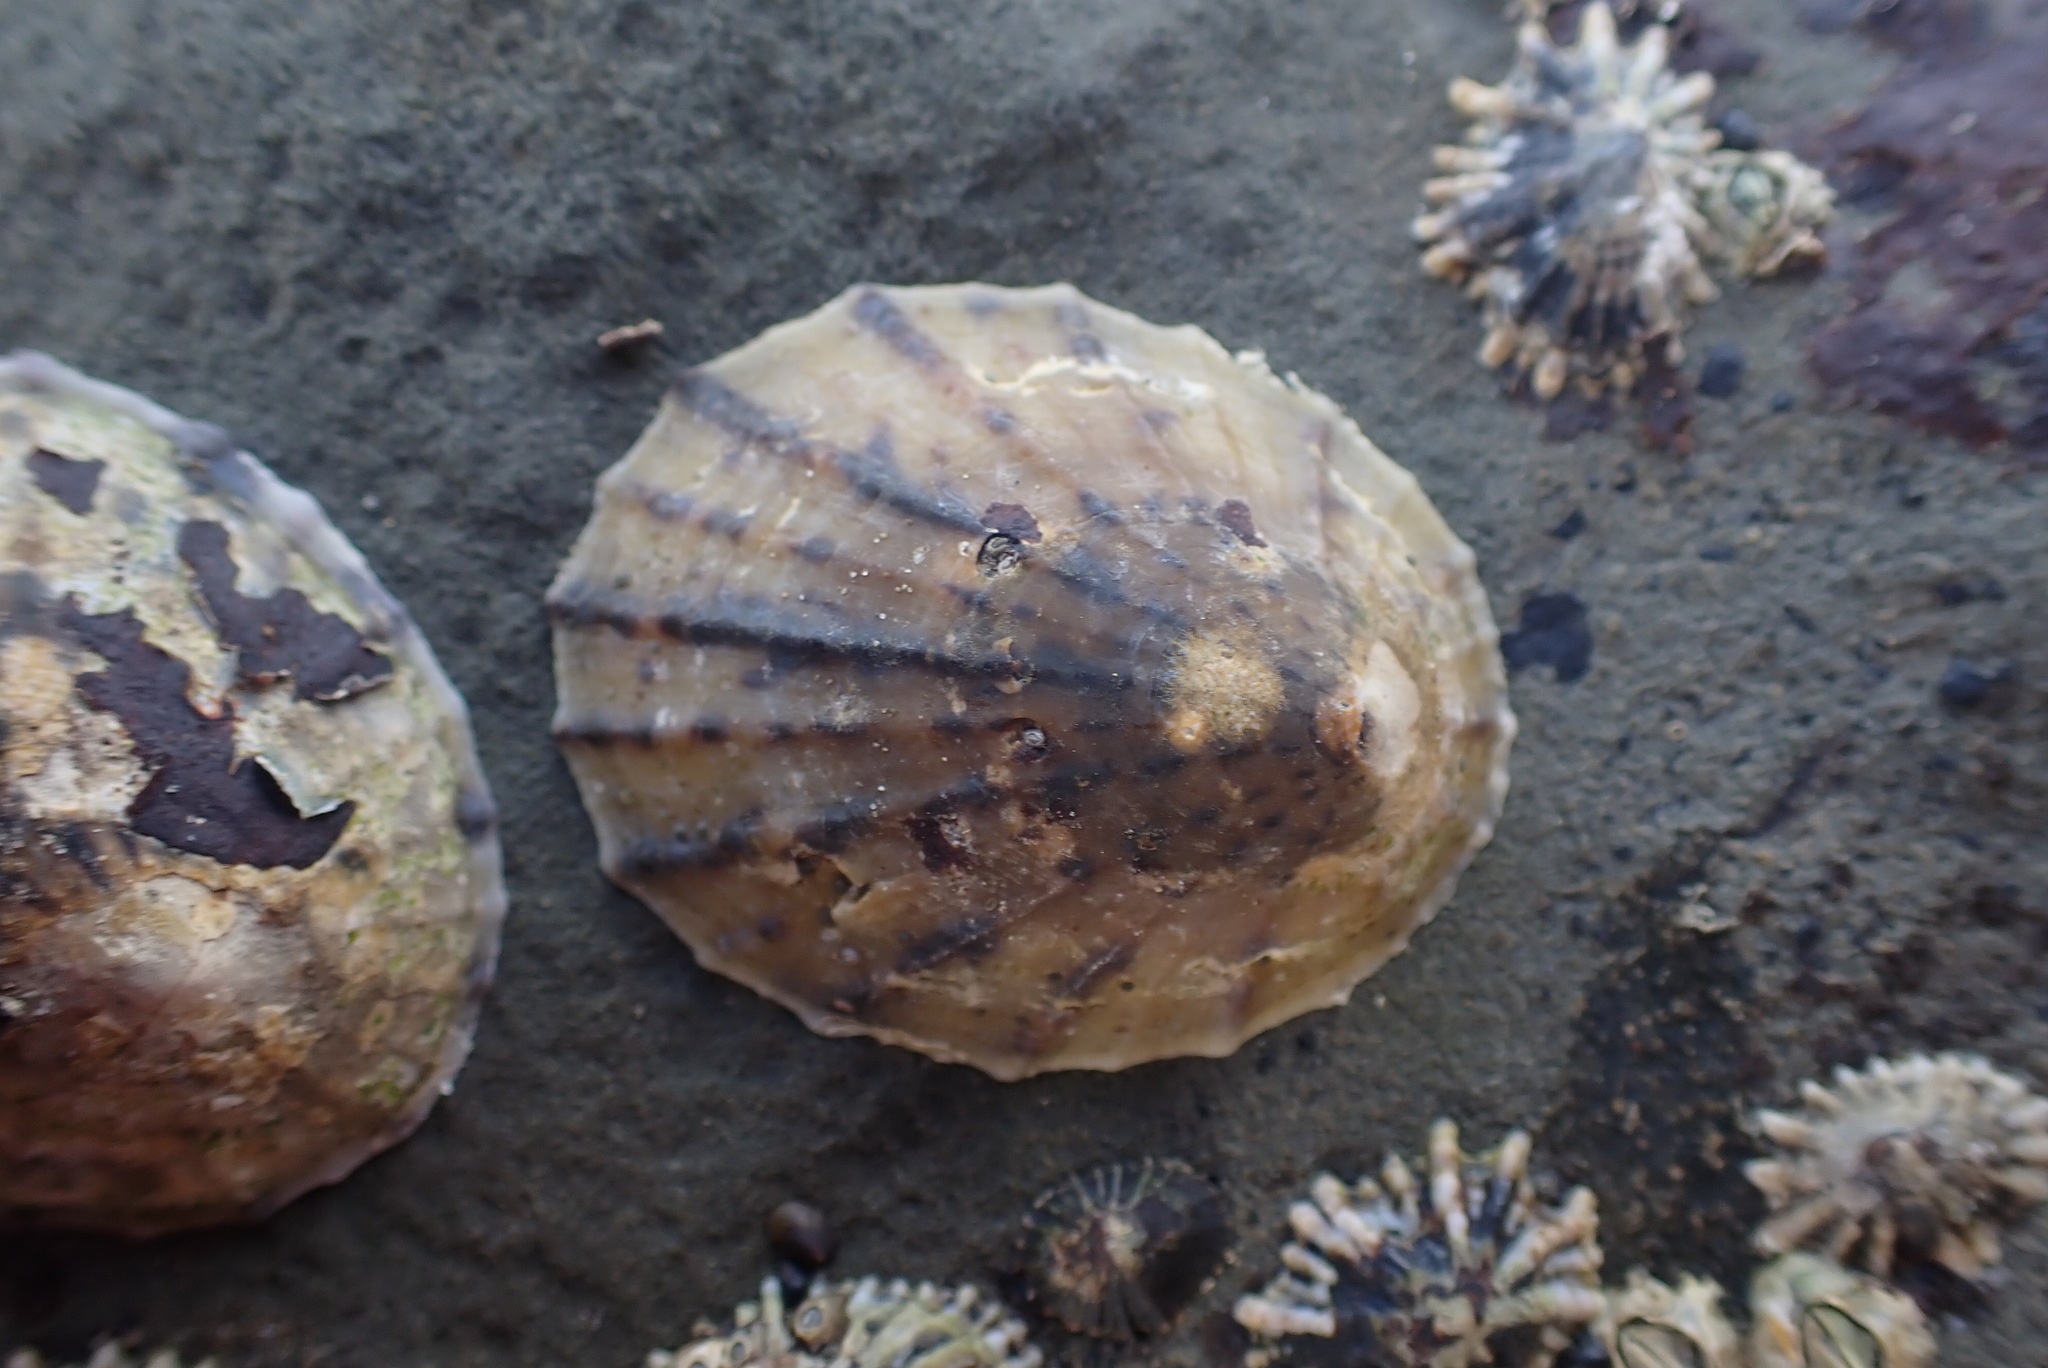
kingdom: Animalia
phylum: Mollusca
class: Gastropoda
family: Nacellidae
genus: Cellana
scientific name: Cellana radians
